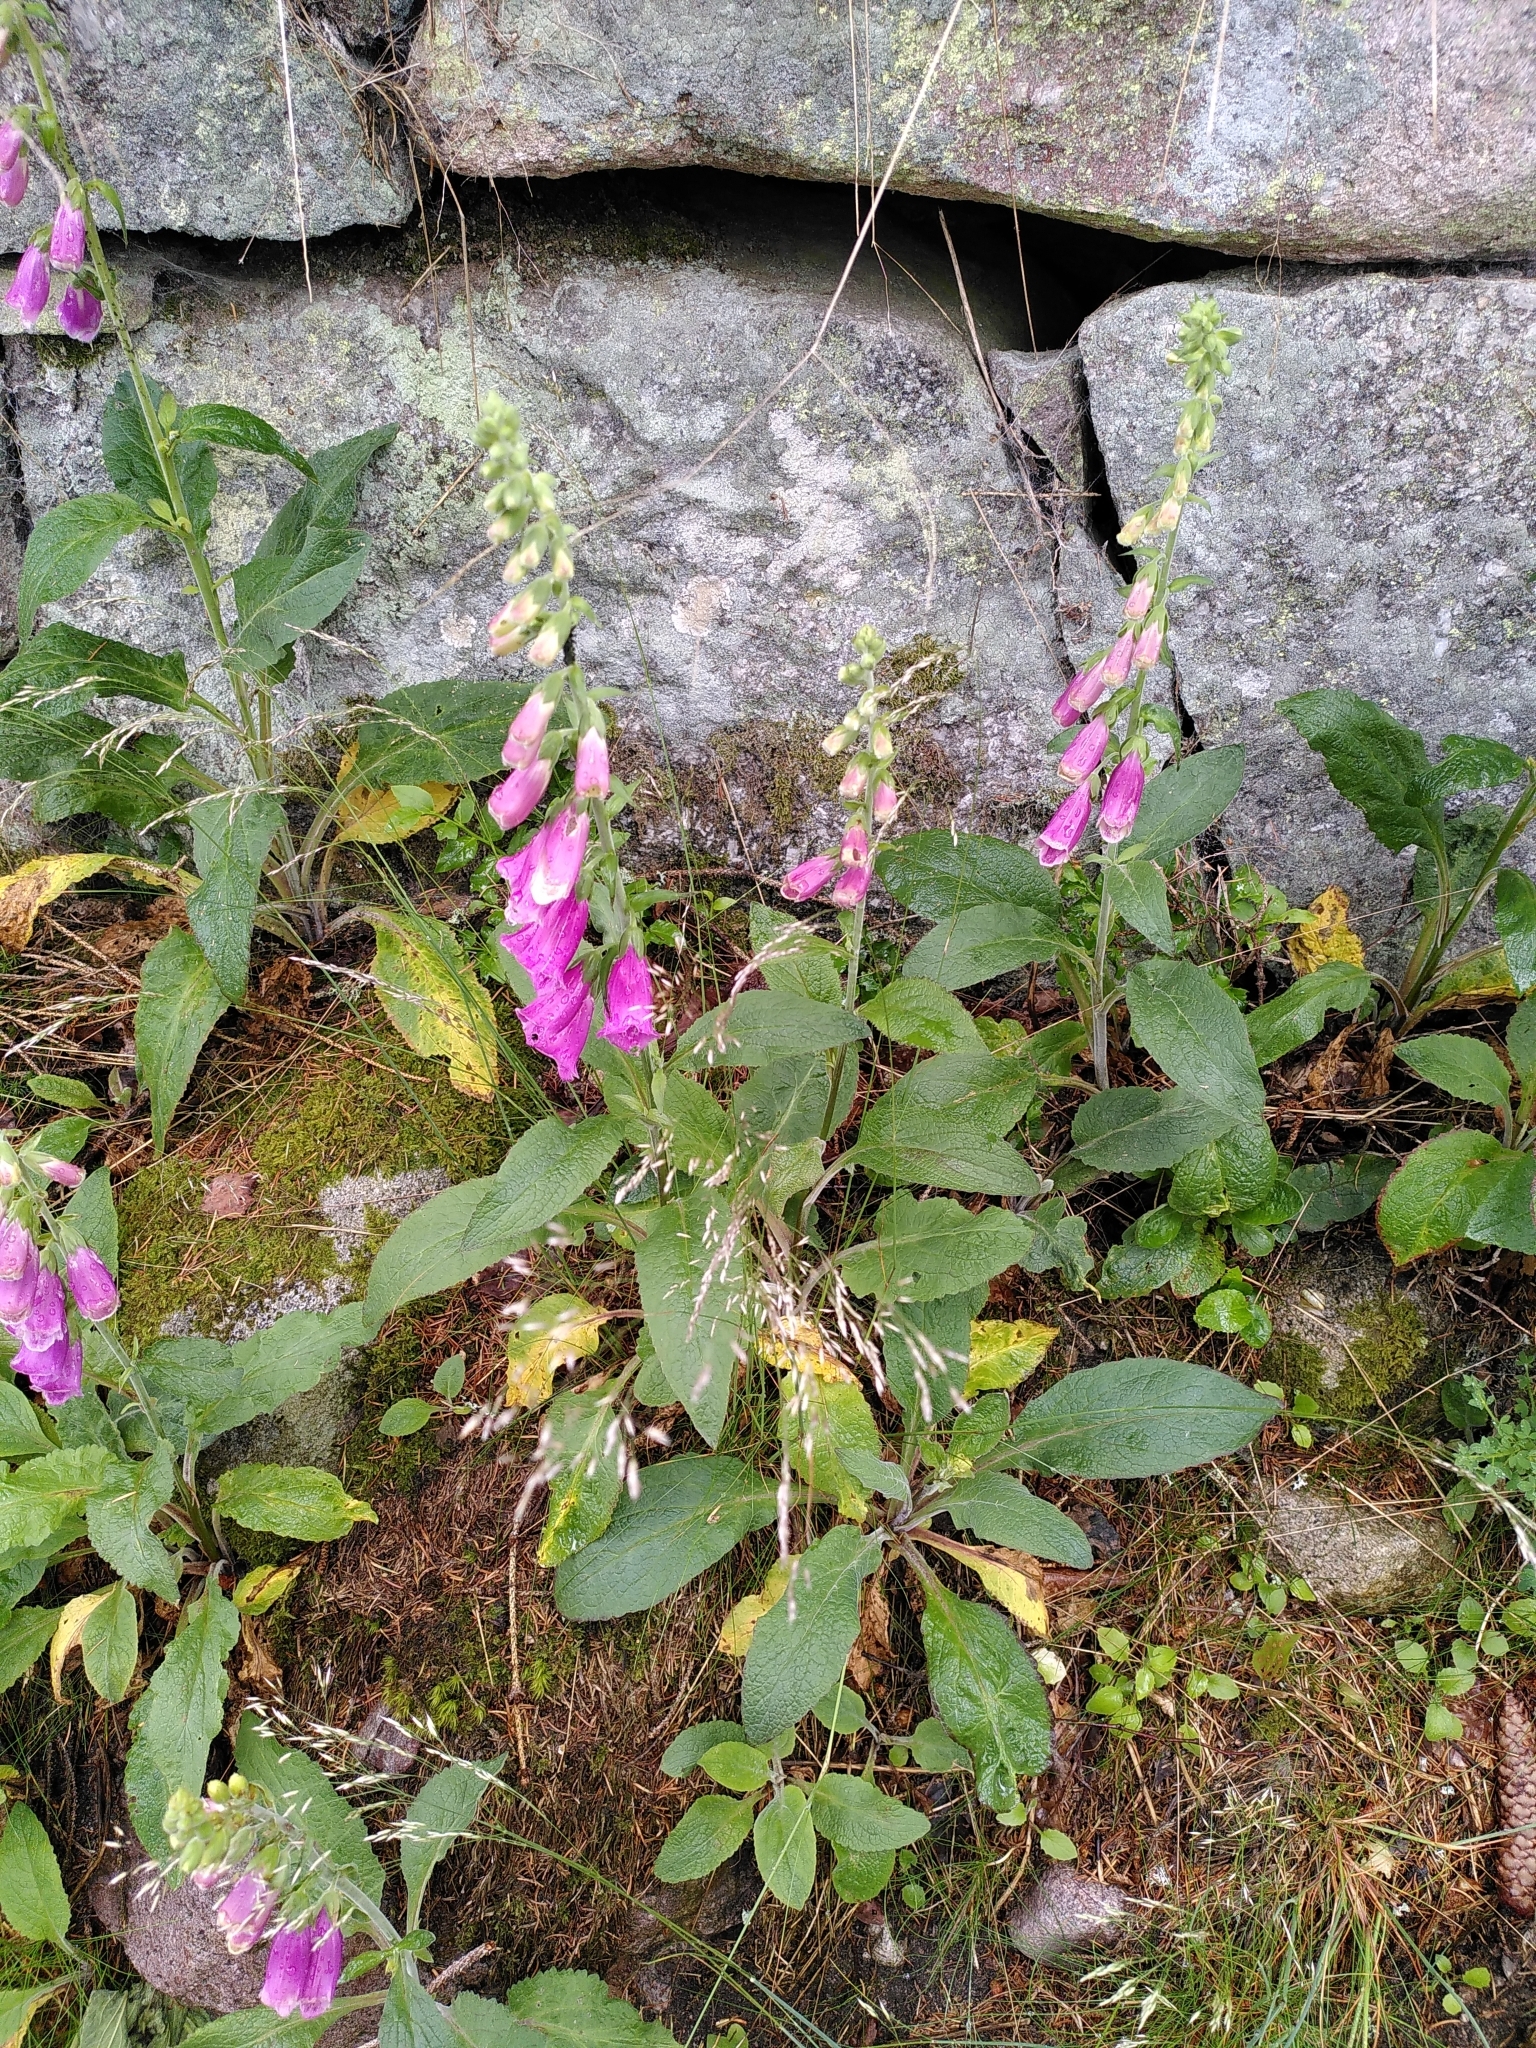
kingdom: Plantae
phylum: Tracheophyta
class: Magnoliopsida
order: Lamiales
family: Plantaginaceae
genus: Digitalis
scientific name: Digitalis purpurea
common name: Foxglove
